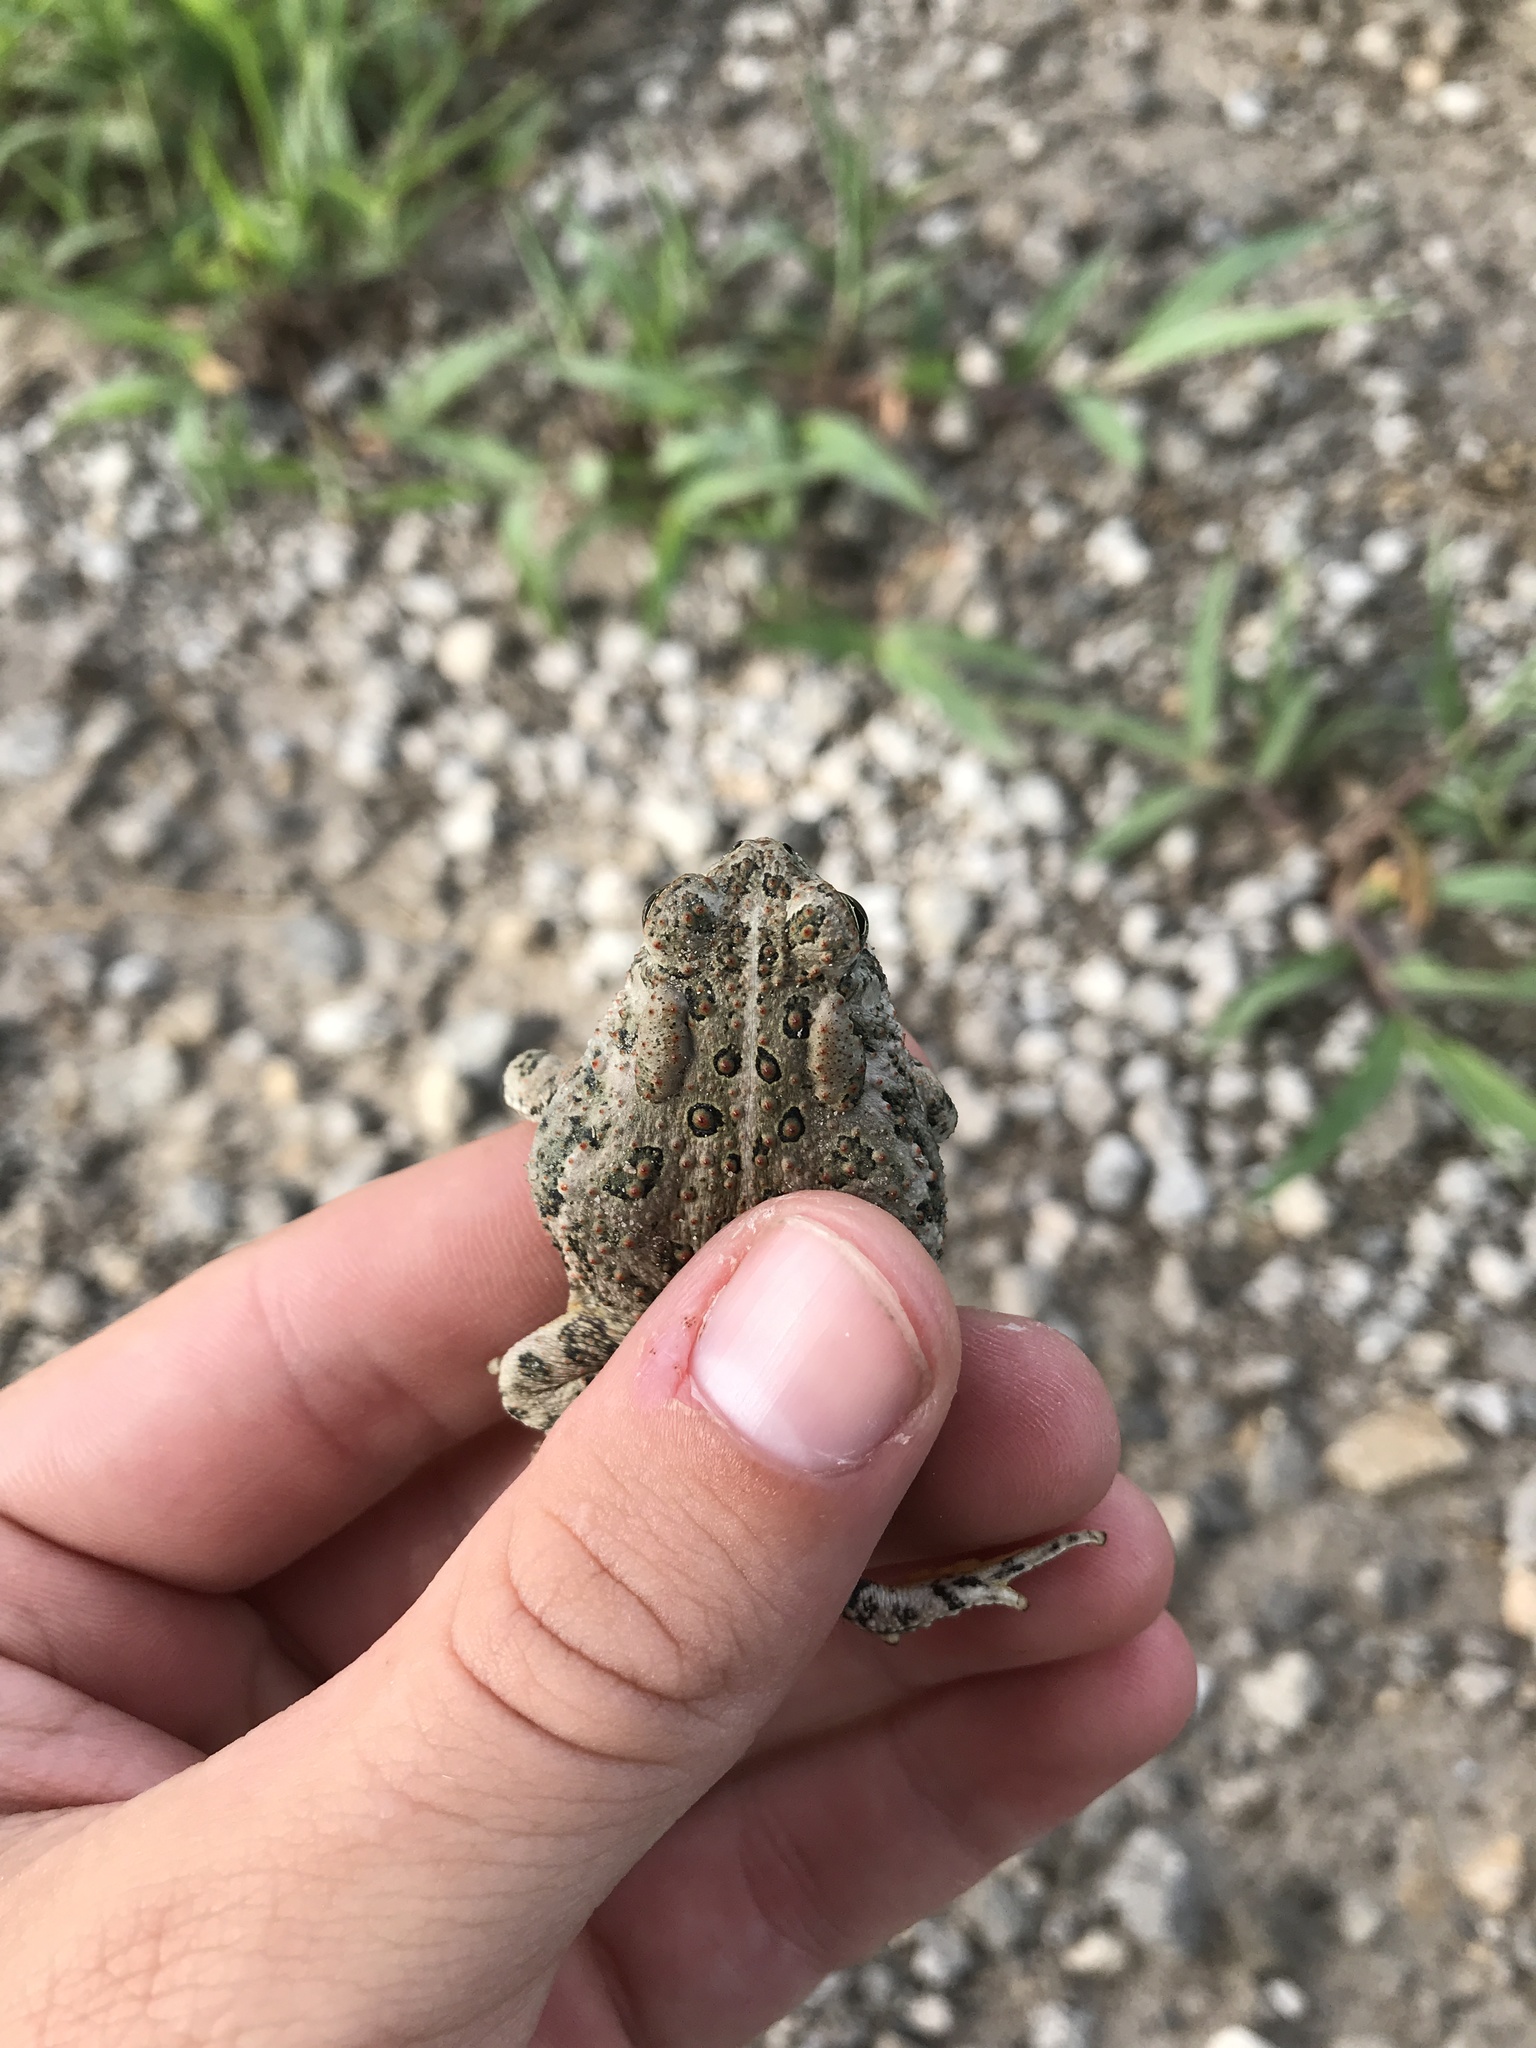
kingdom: Animalia
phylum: Chordata
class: Amphibia
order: Anura
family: Bufonidae
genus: Anaxyrus
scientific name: Anaxyrus woodhousii
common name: Woodhouse's toad
